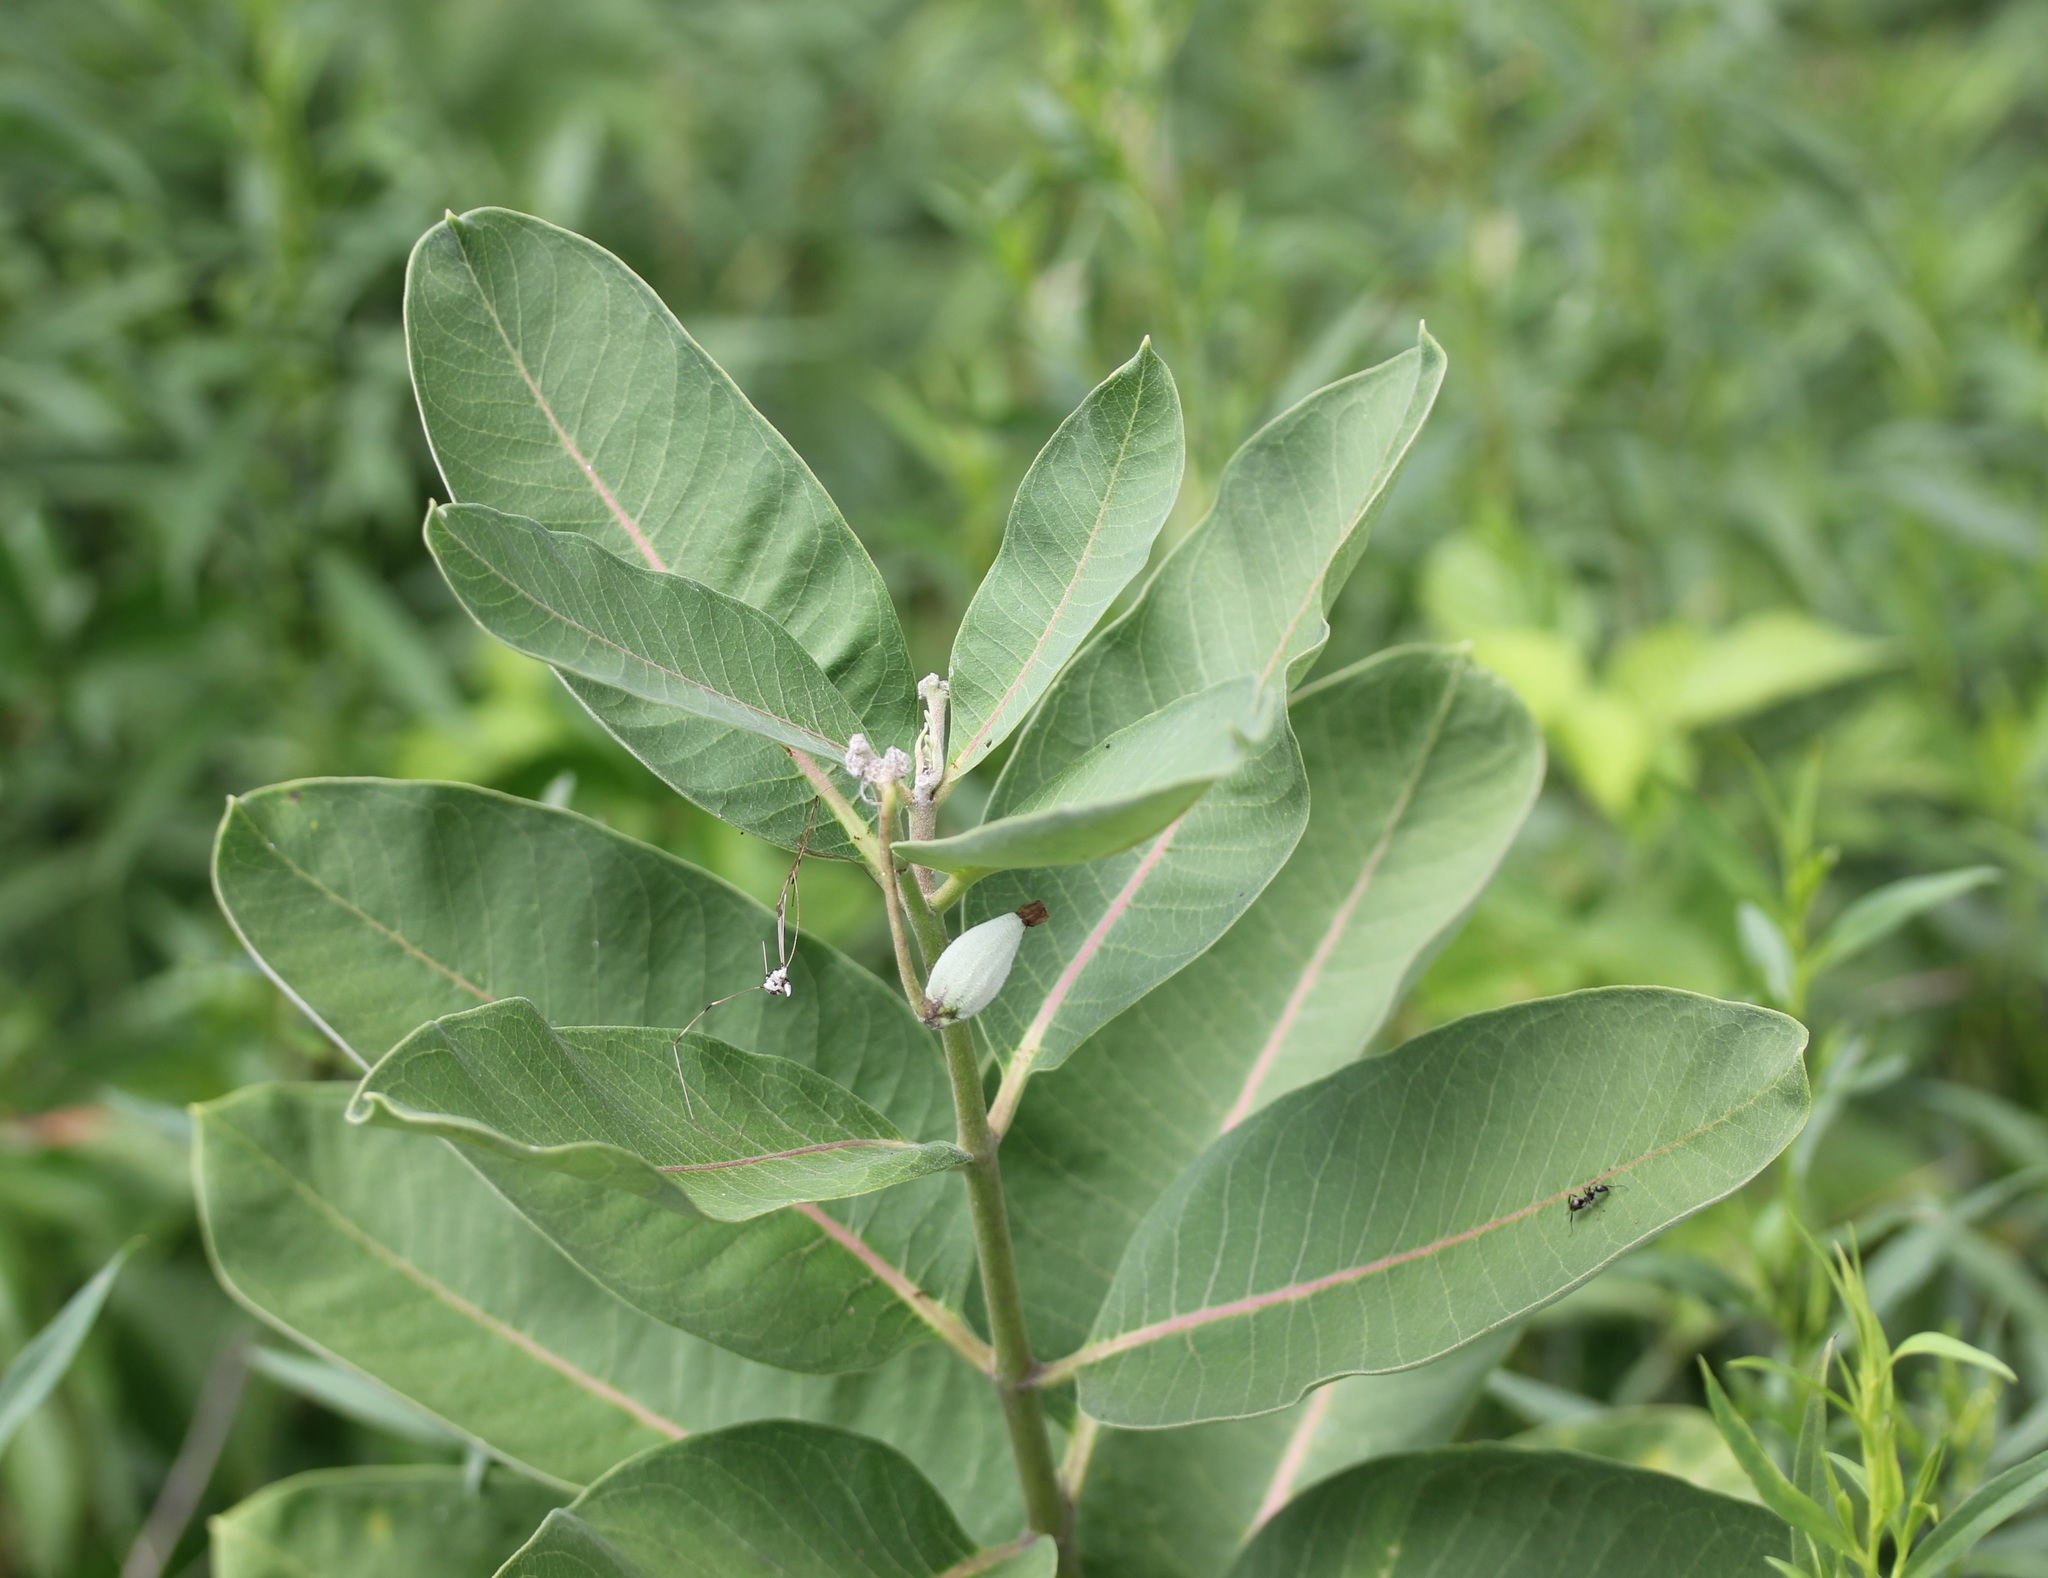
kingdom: Plantae
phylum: Tracheophyta
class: Magnoliopsida
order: Gentianales
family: Apocynaceae
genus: Asclepias
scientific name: Asclepias syriaca
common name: Common milkweed
